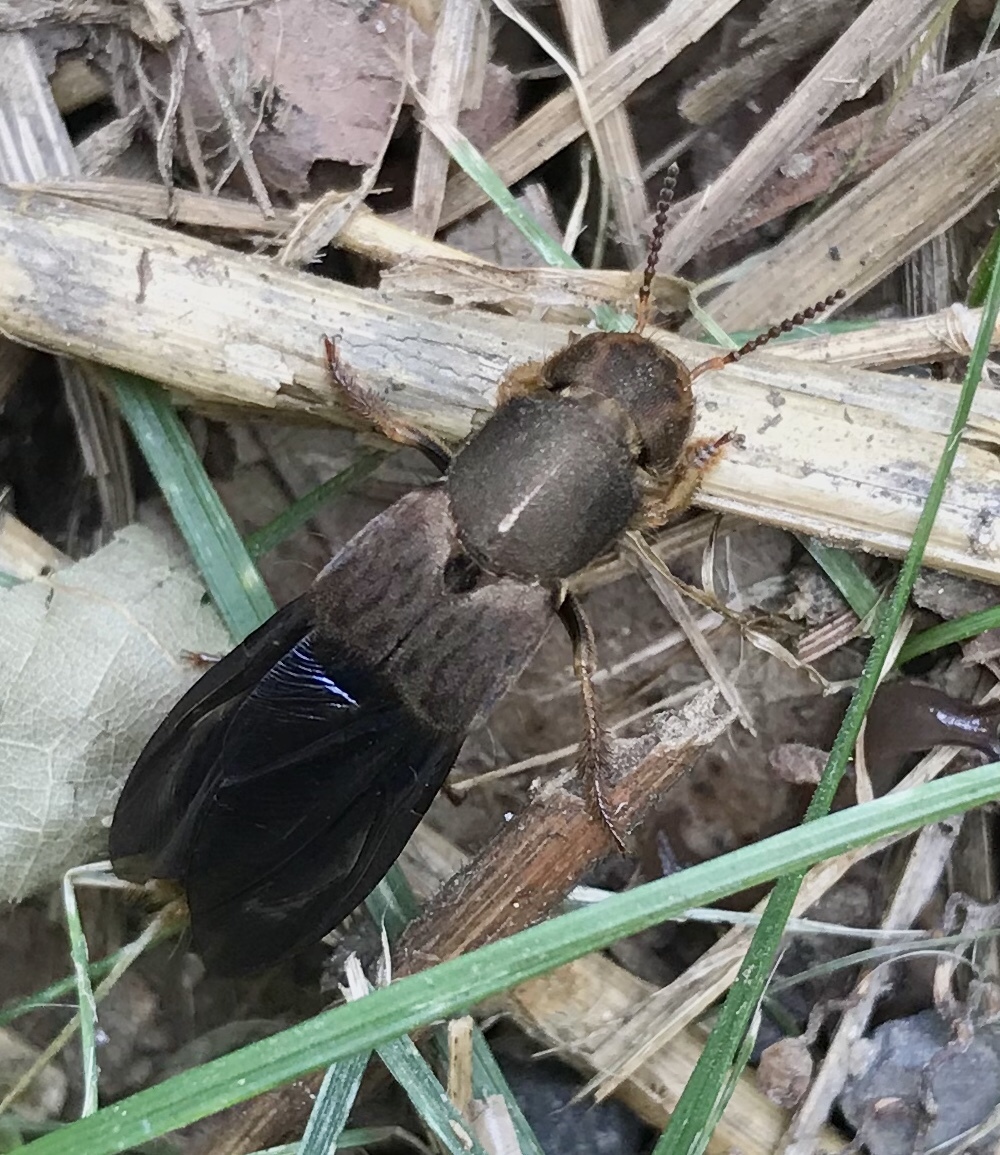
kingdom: Animalia
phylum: Arthropoda
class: Insecta
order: Coleoptera
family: Staphylinidae
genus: Platydracus
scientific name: Platydracus maculosus
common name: Brown rove beetle
